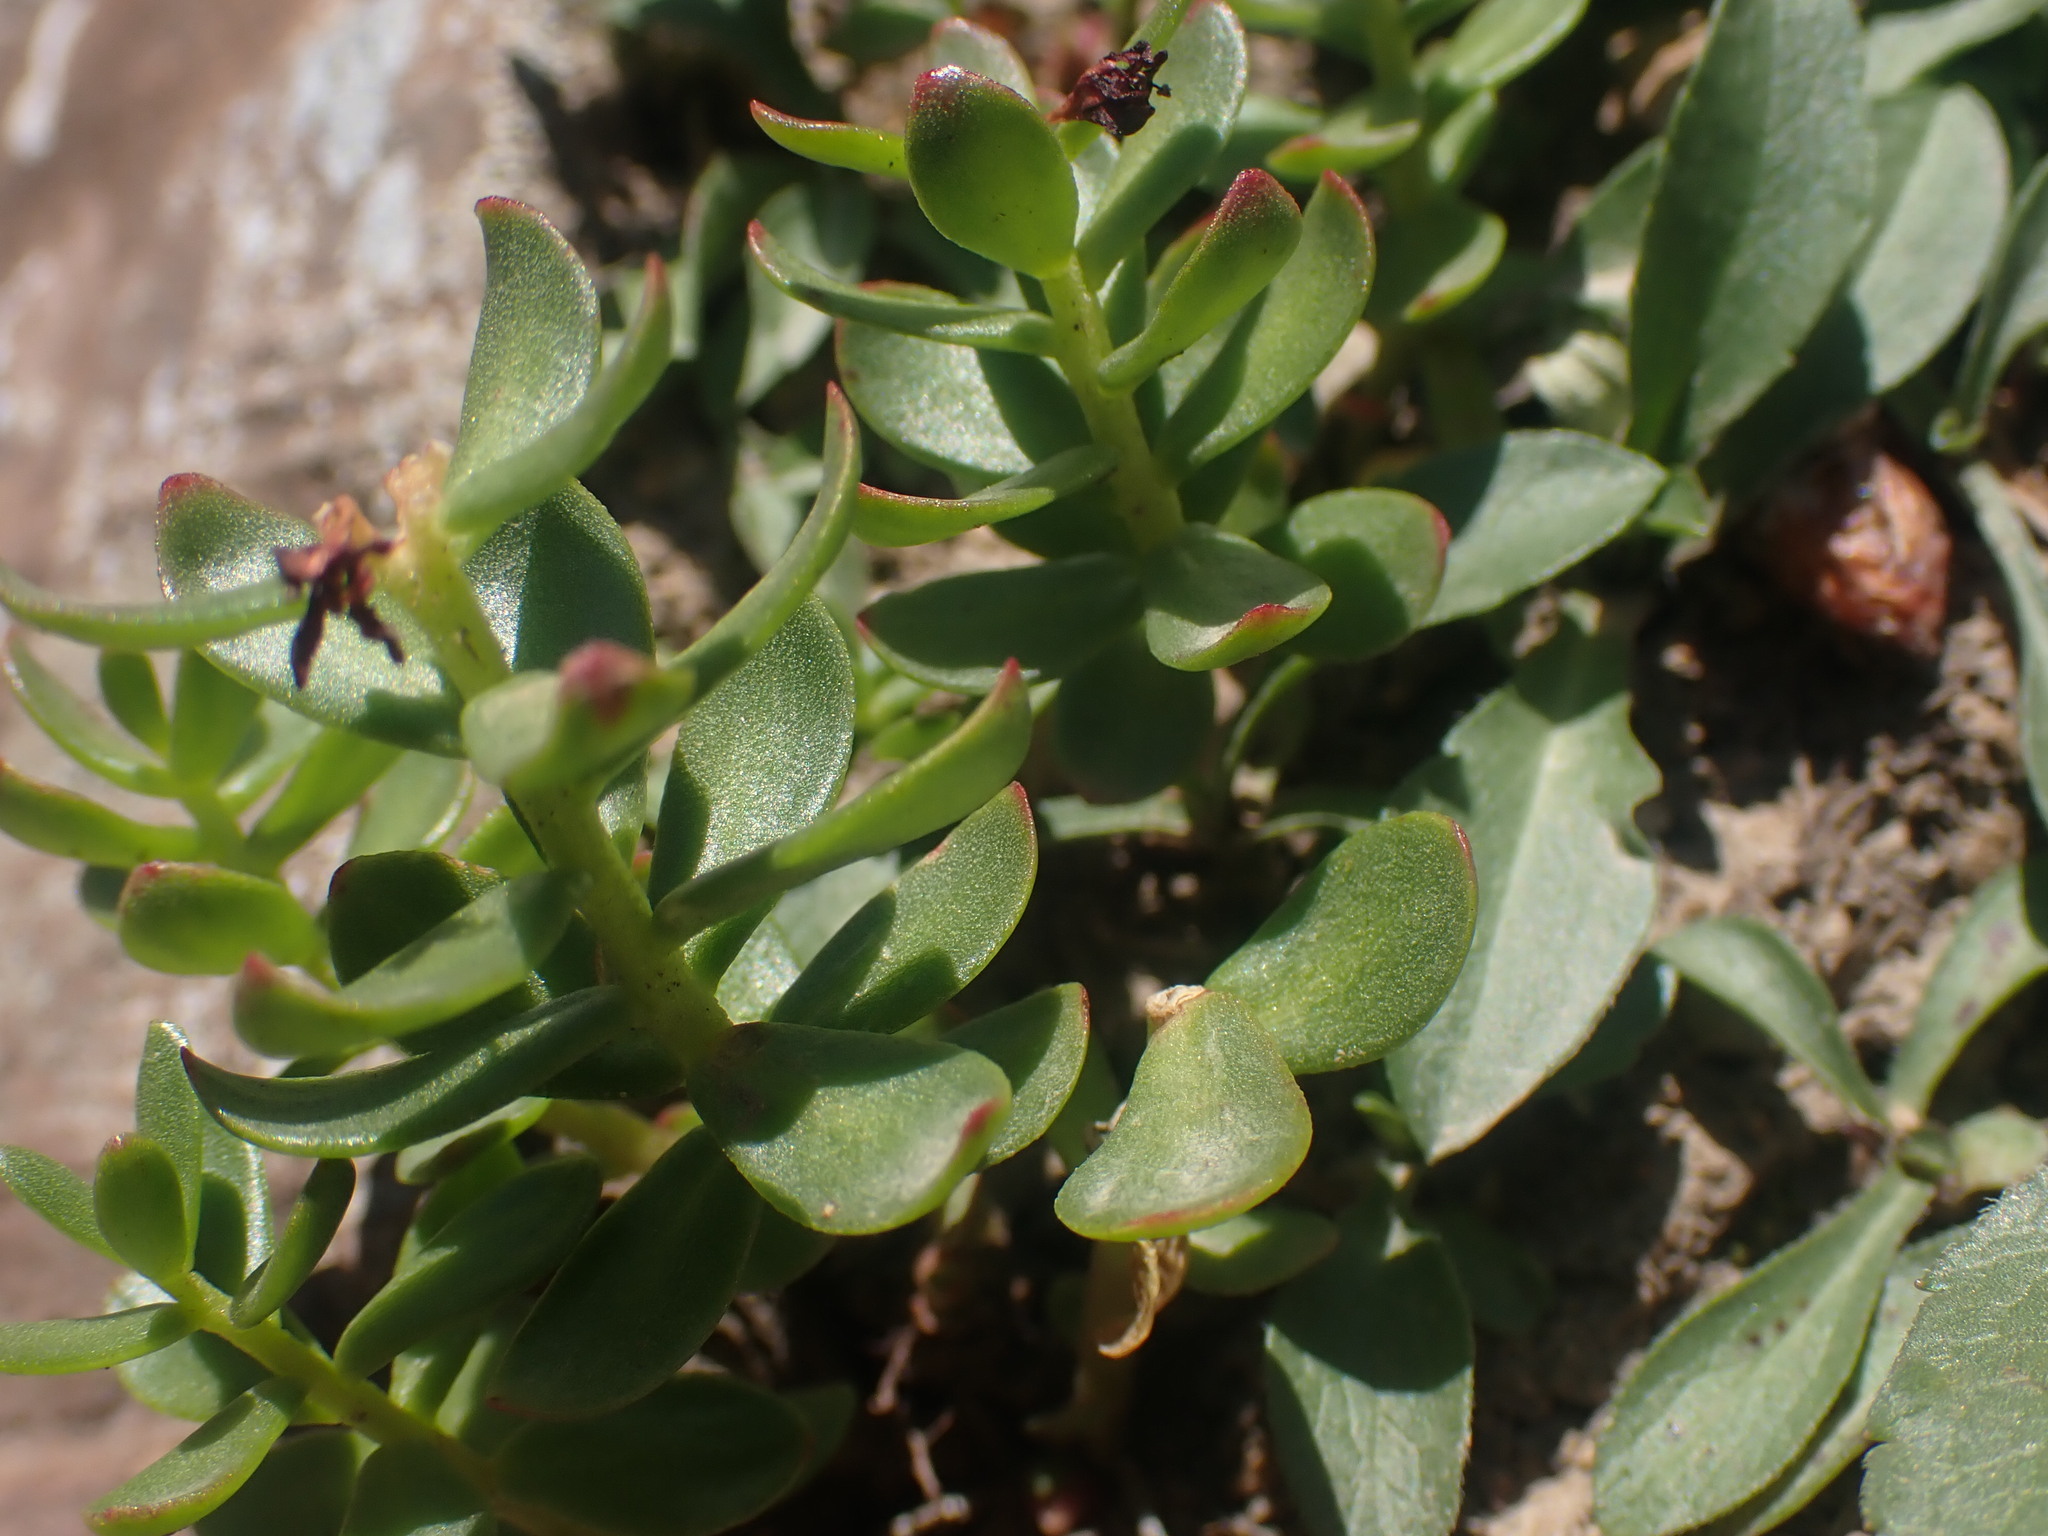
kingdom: Plantae
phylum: Tracheophyta
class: Magnoliopsida
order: Saxifragales
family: Crassulaceae
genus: Rhodiola
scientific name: Rhodiola integrifolia
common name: Western roseroot
